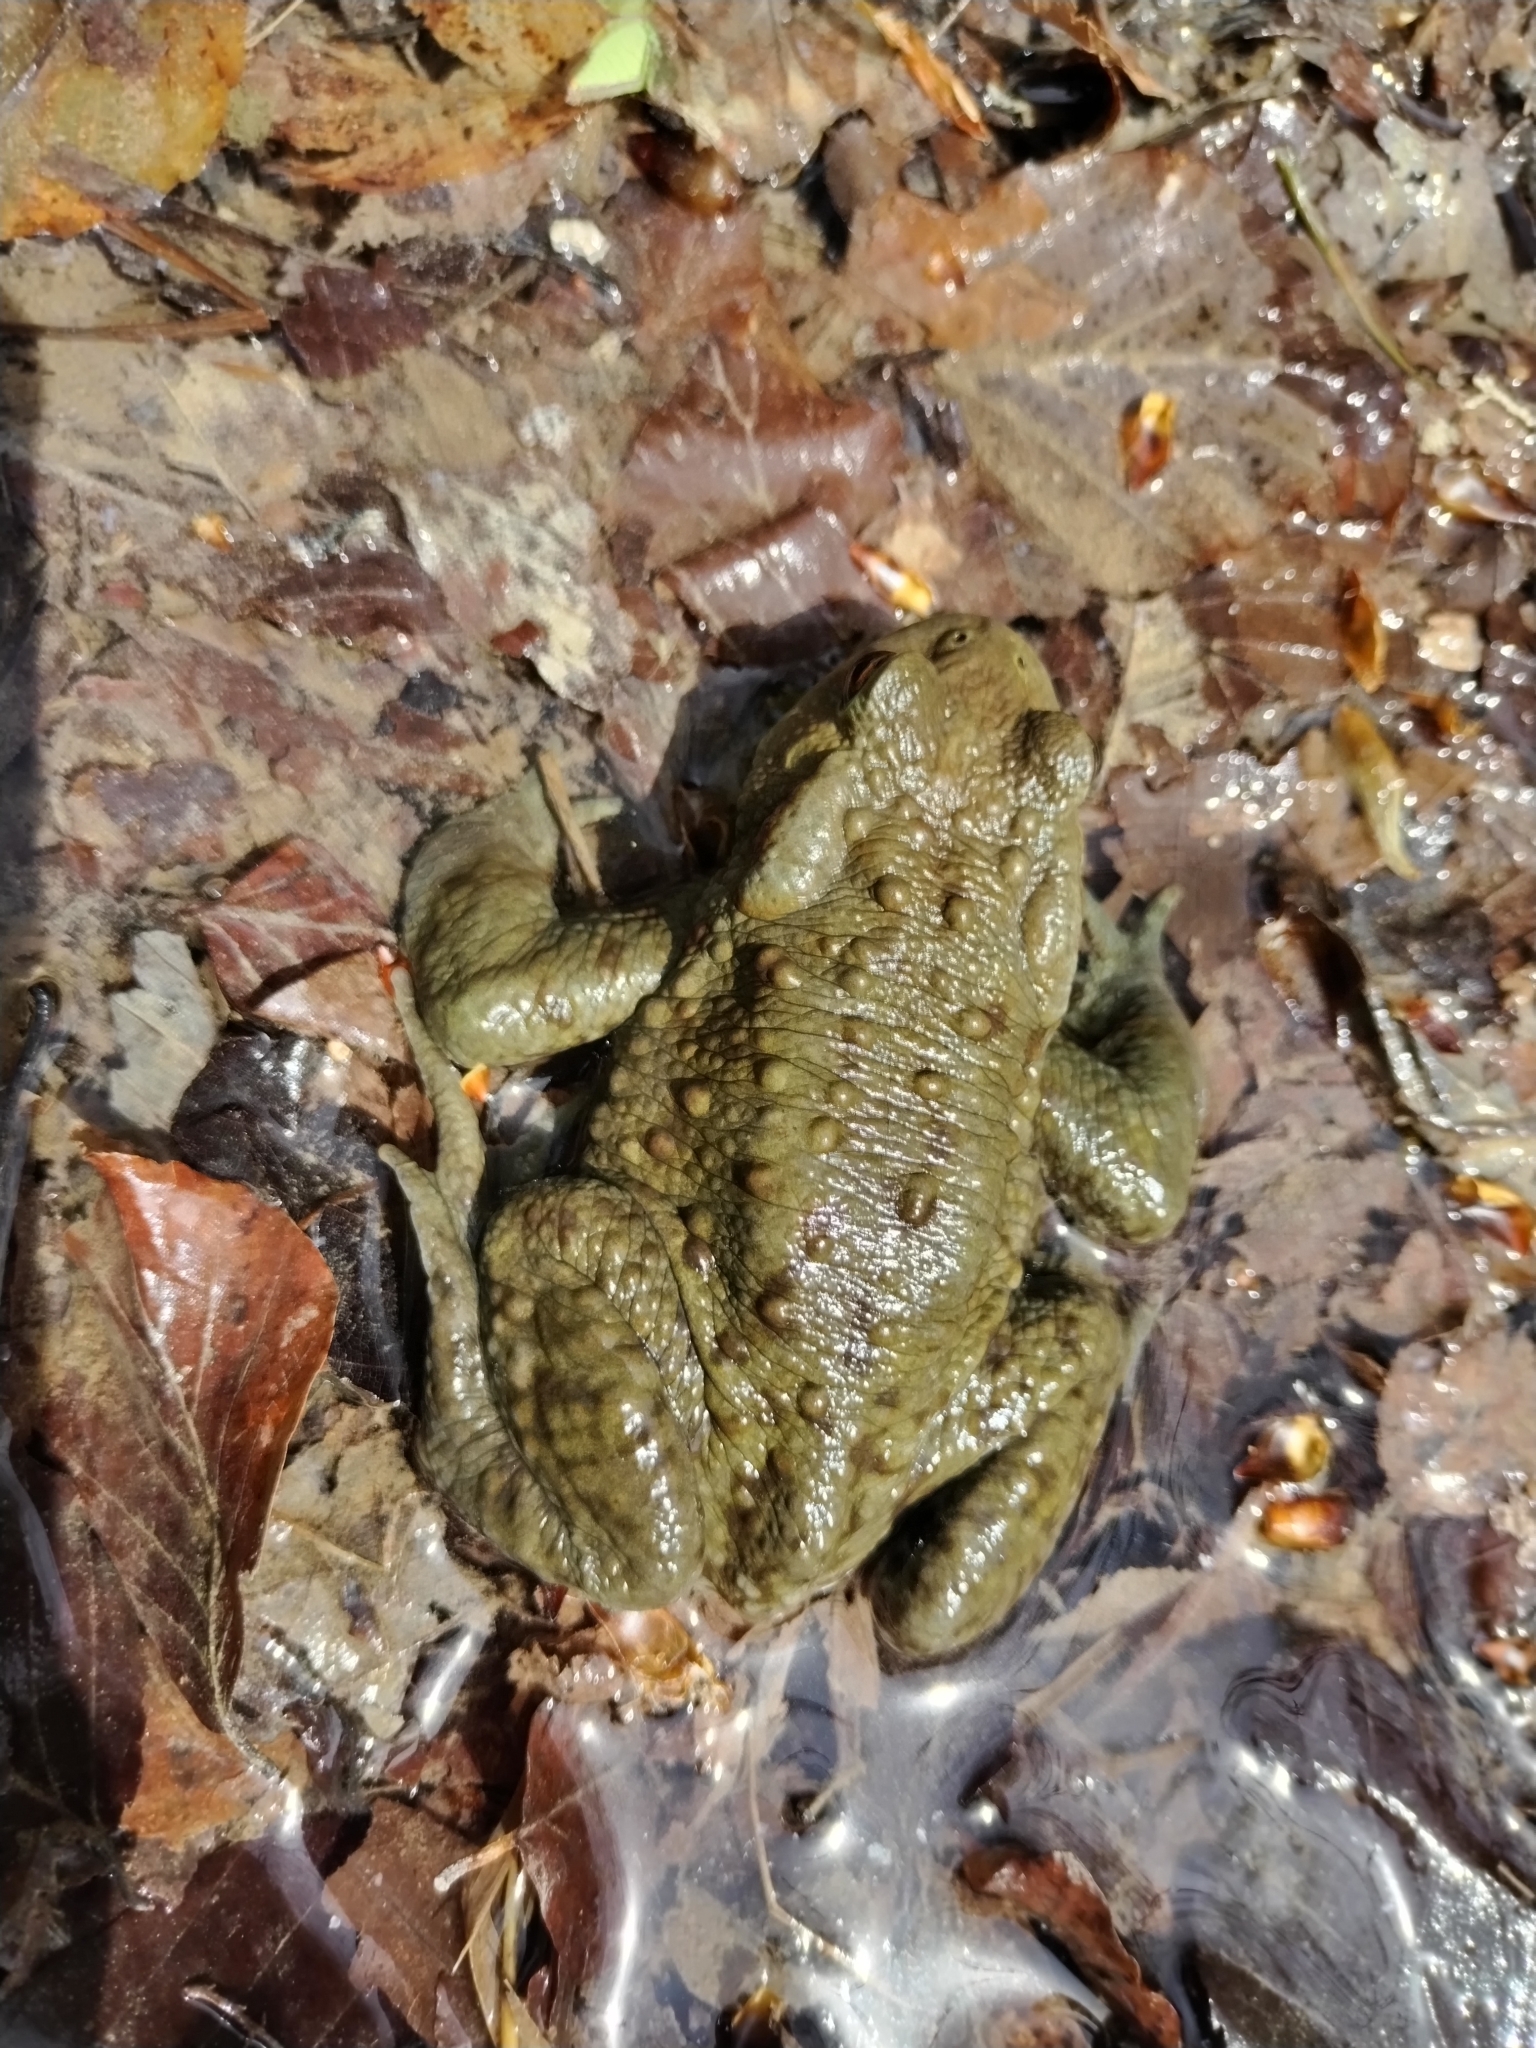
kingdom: Animalia
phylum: Chordata
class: Amphibia
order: Anura
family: Bufonidae
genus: Bufo
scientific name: Bufo bufo
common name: Common toad
